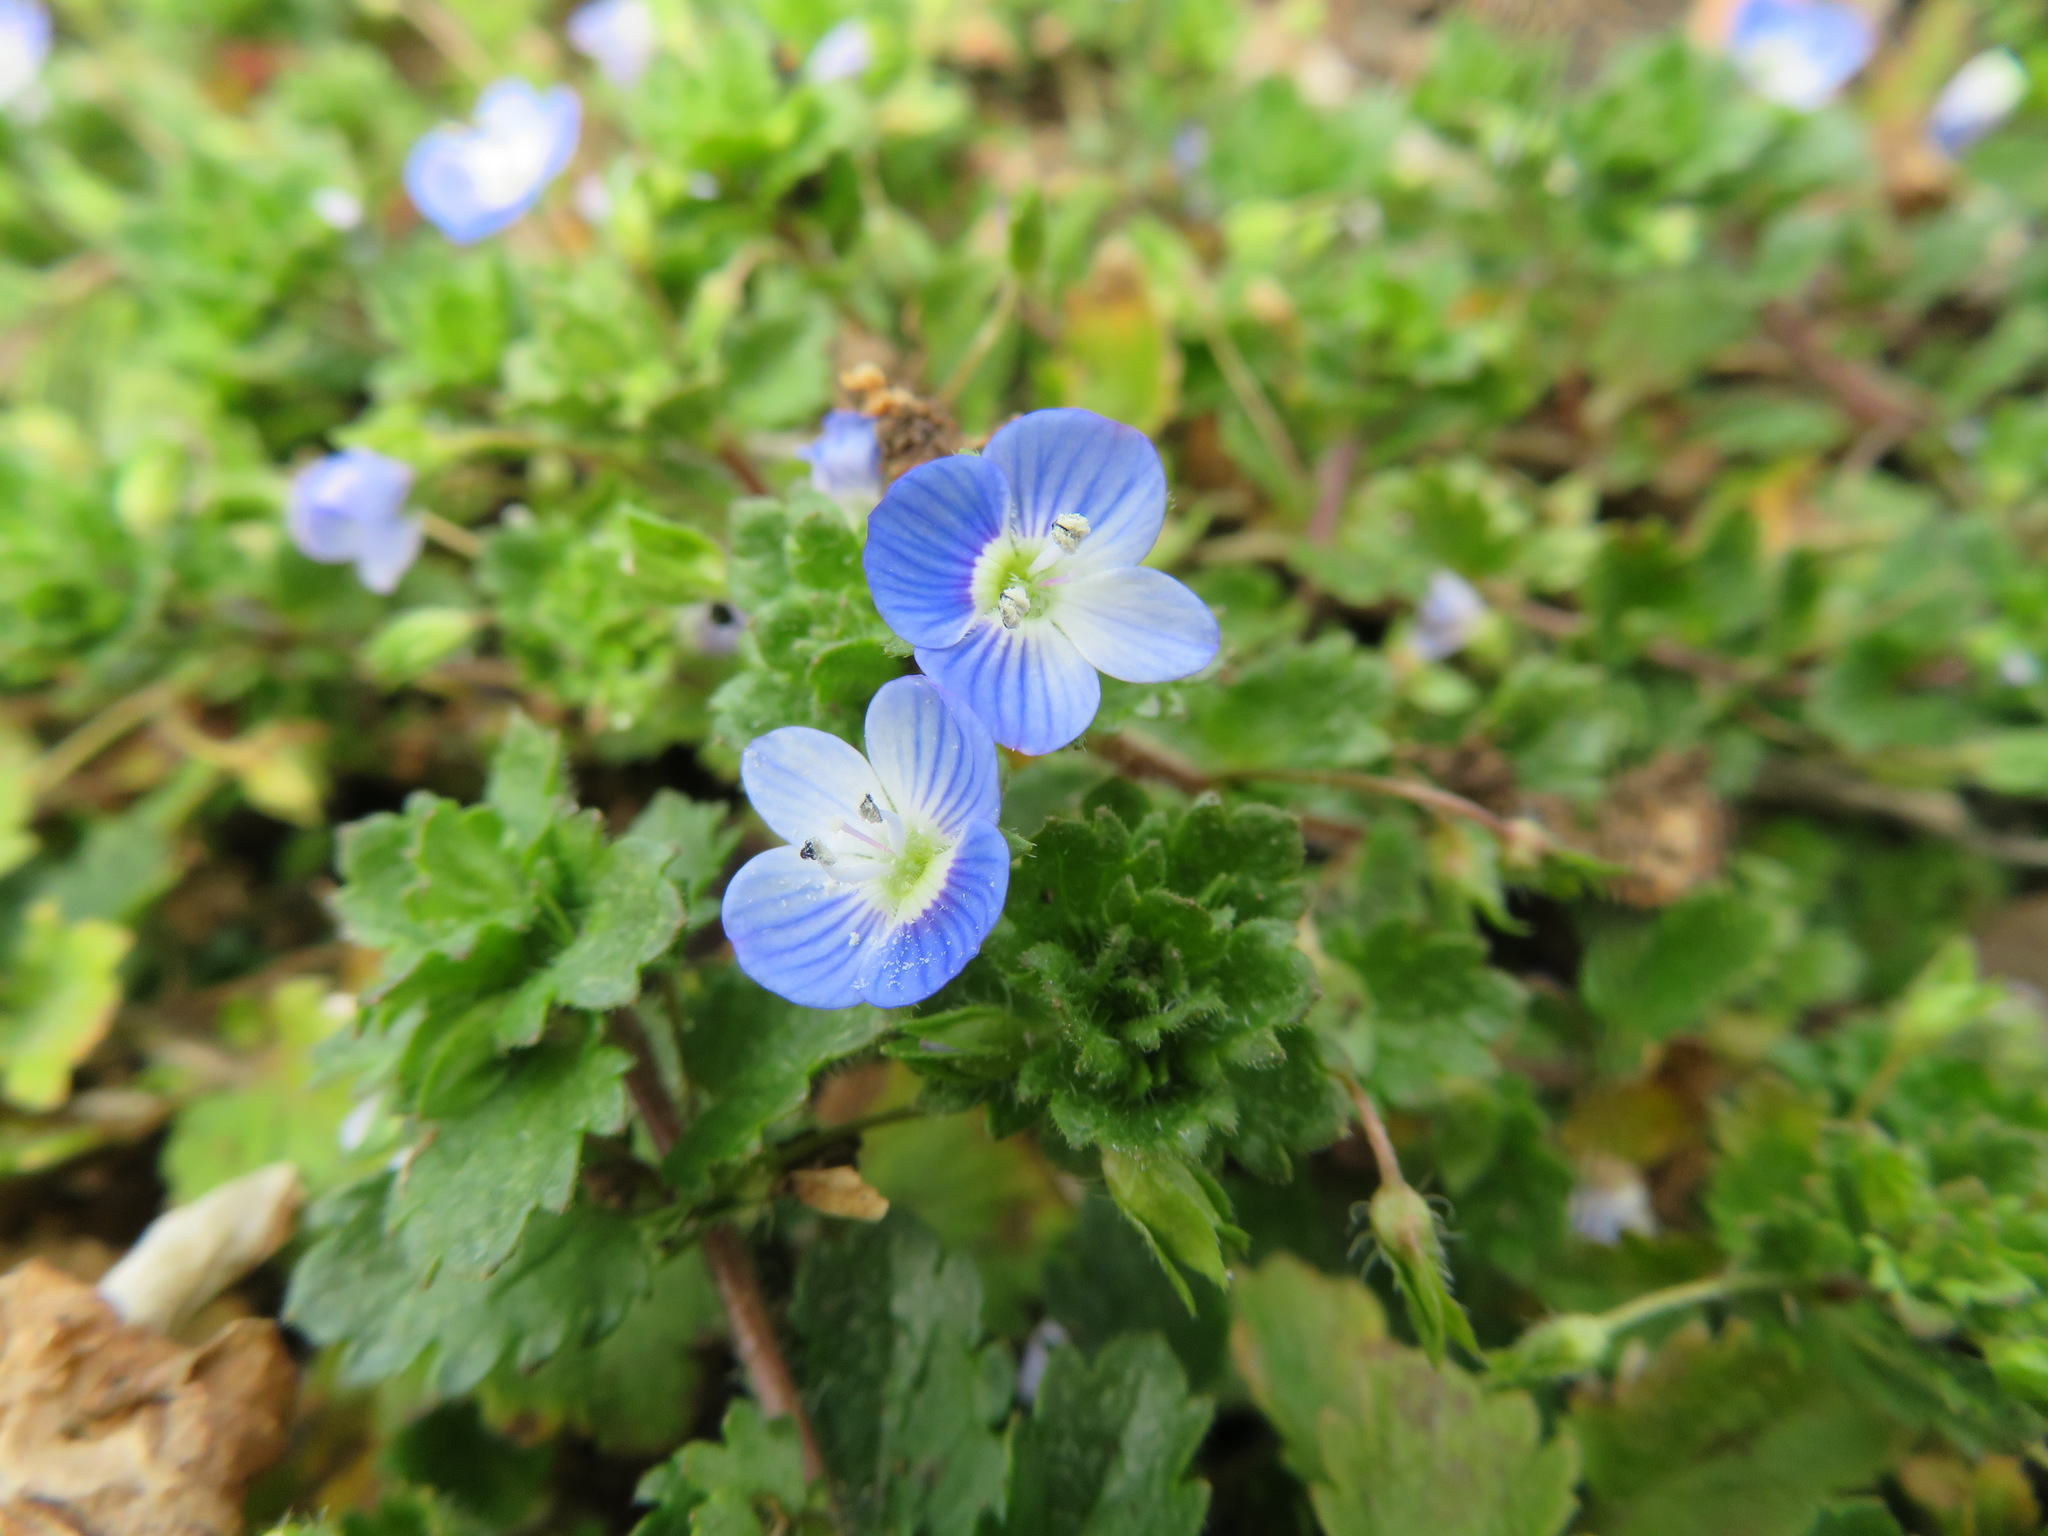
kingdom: Plantae
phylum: Tracheophyta
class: Magnoliopsida
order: Lamiales
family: Plantaginaceae
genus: Veronica
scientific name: Veronica persica
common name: Common field-speedwell
